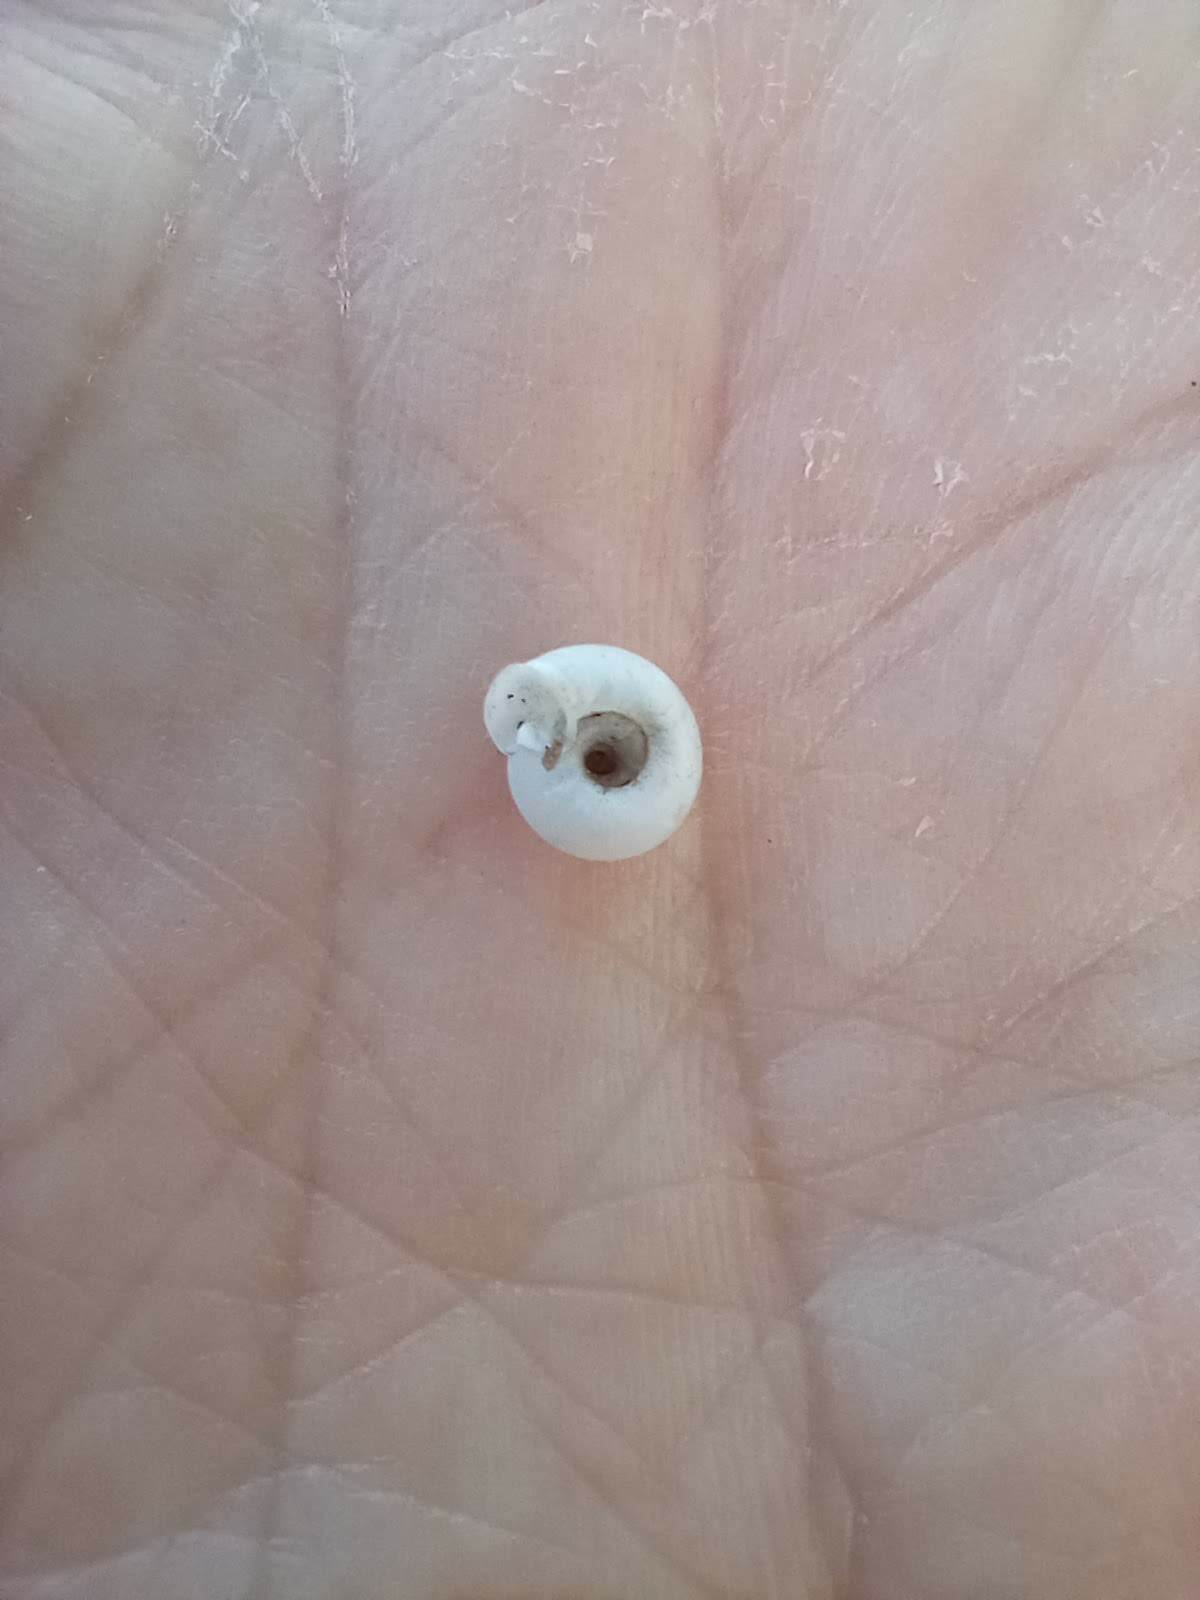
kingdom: Animalia
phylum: Mollusca
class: Gastropoda
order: Stylommatophora
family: Polygyridae
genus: Polygyra
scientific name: Polygyra cereolus
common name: Southern flatcone snail
